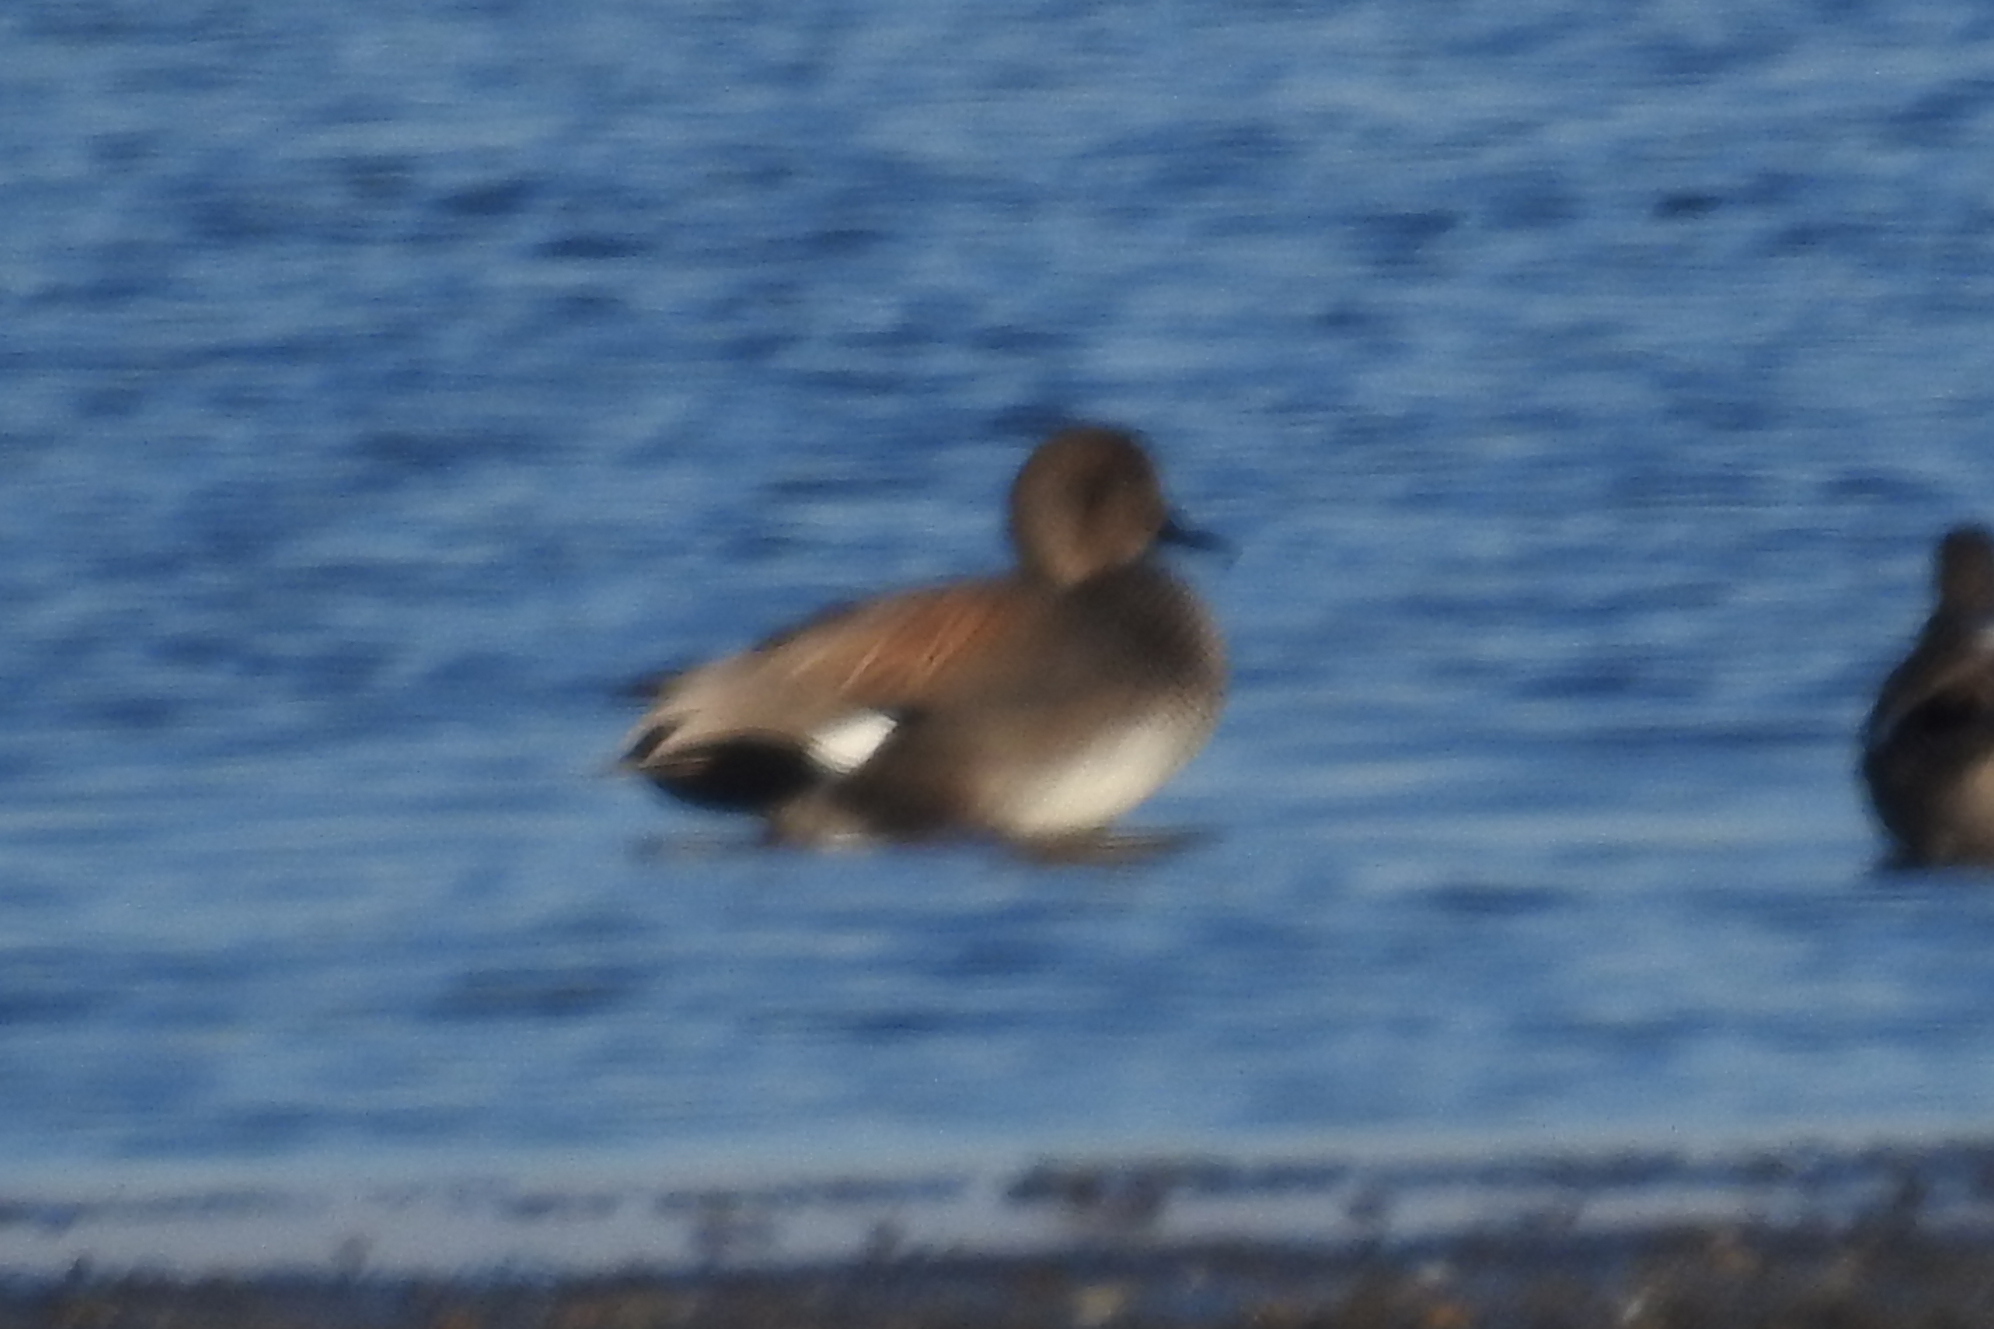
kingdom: Animalia
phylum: Chordata
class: Aves
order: Anseriformes
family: Anatidae
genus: Mareca
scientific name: Mareca strepera
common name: Gadwall
